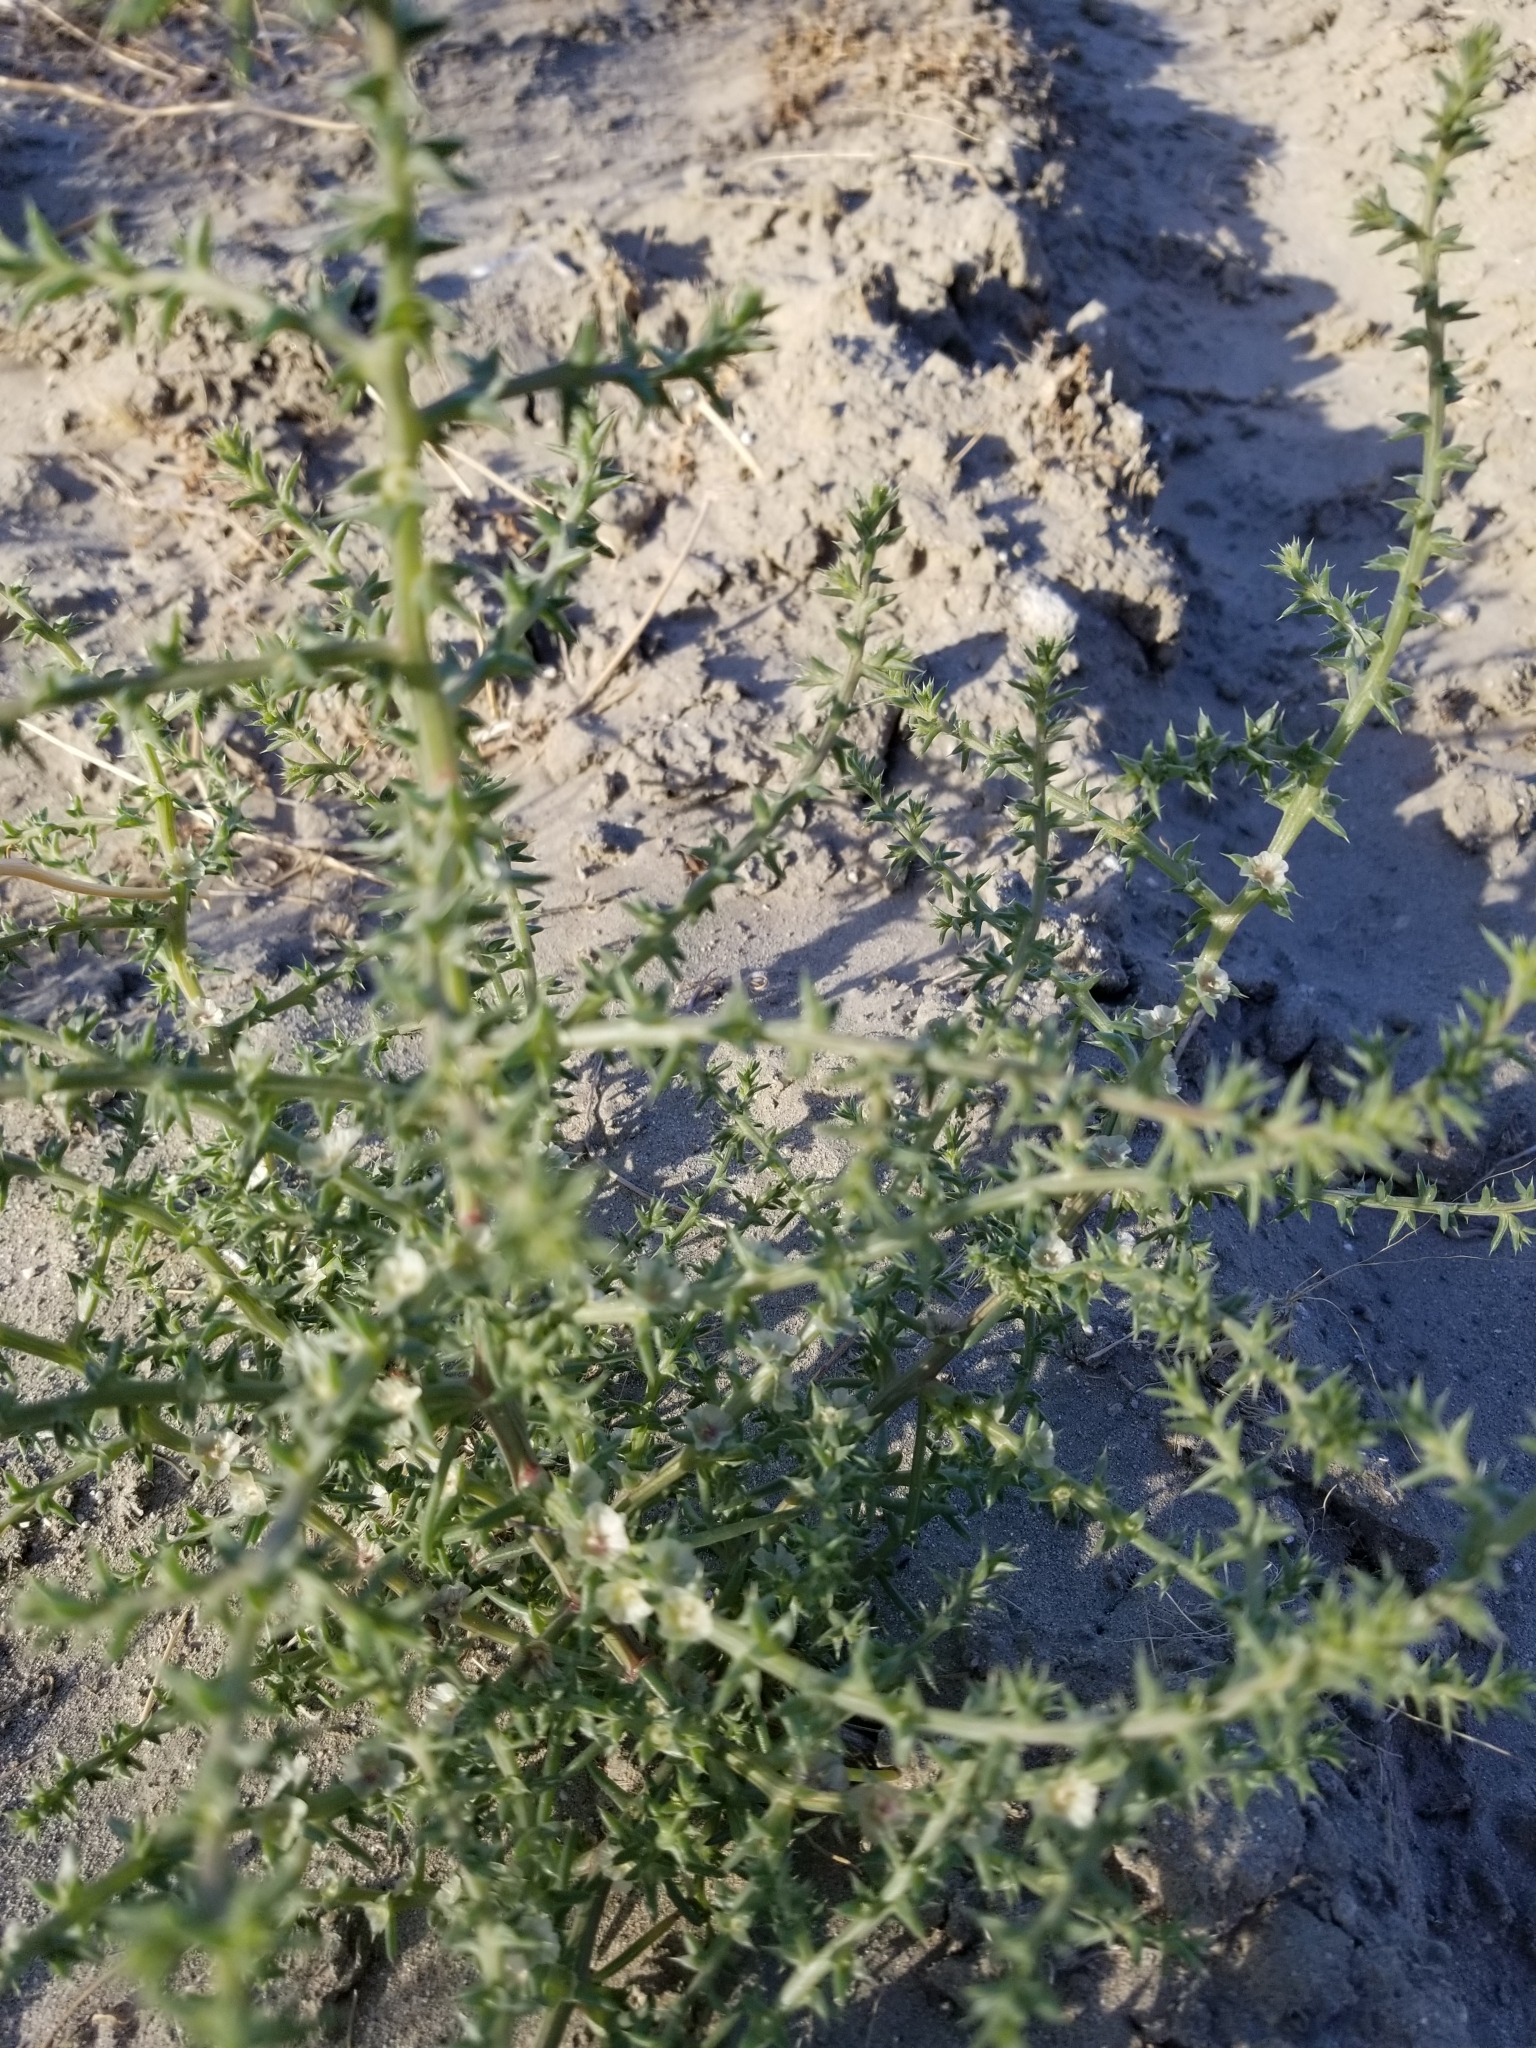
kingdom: Plantae
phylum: Tracheophyta
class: Magnoliopsida
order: Caryophyllales
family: Amaranthaceae
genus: Salsola
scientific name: Salsola tragus
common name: Prickly russian thistle
